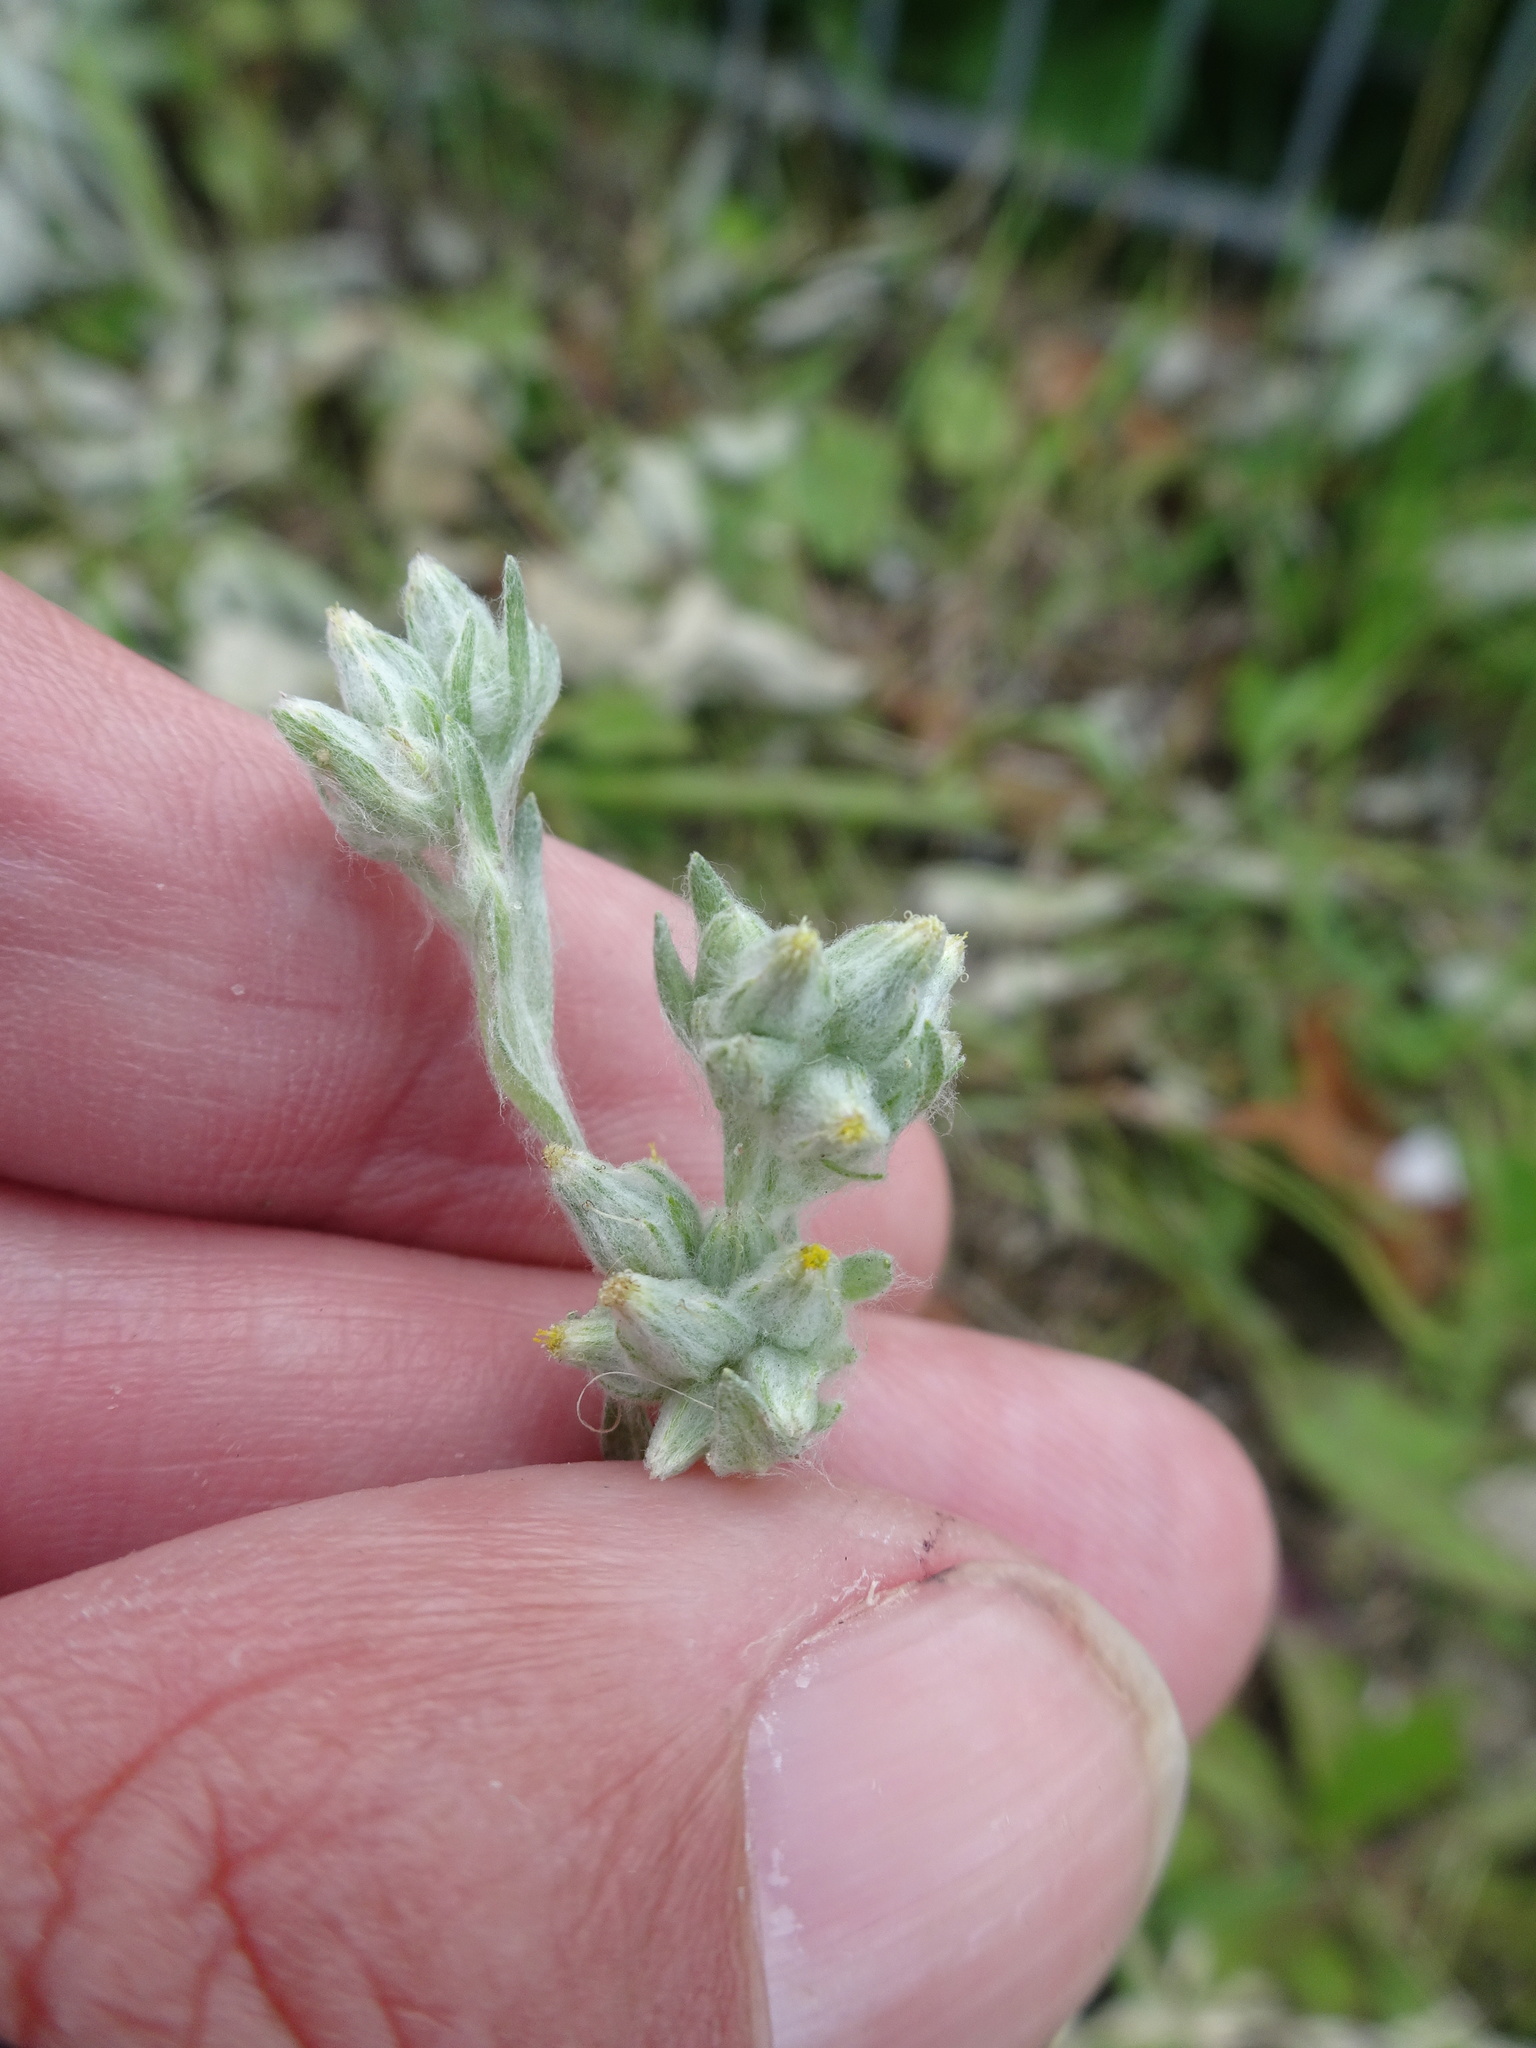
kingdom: Plantae
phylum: Tracheophyta
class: Magnoliopsida
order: Asterales
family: Asteraceae
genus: Filago
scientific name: Filago arvensis
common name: Field cudweed
